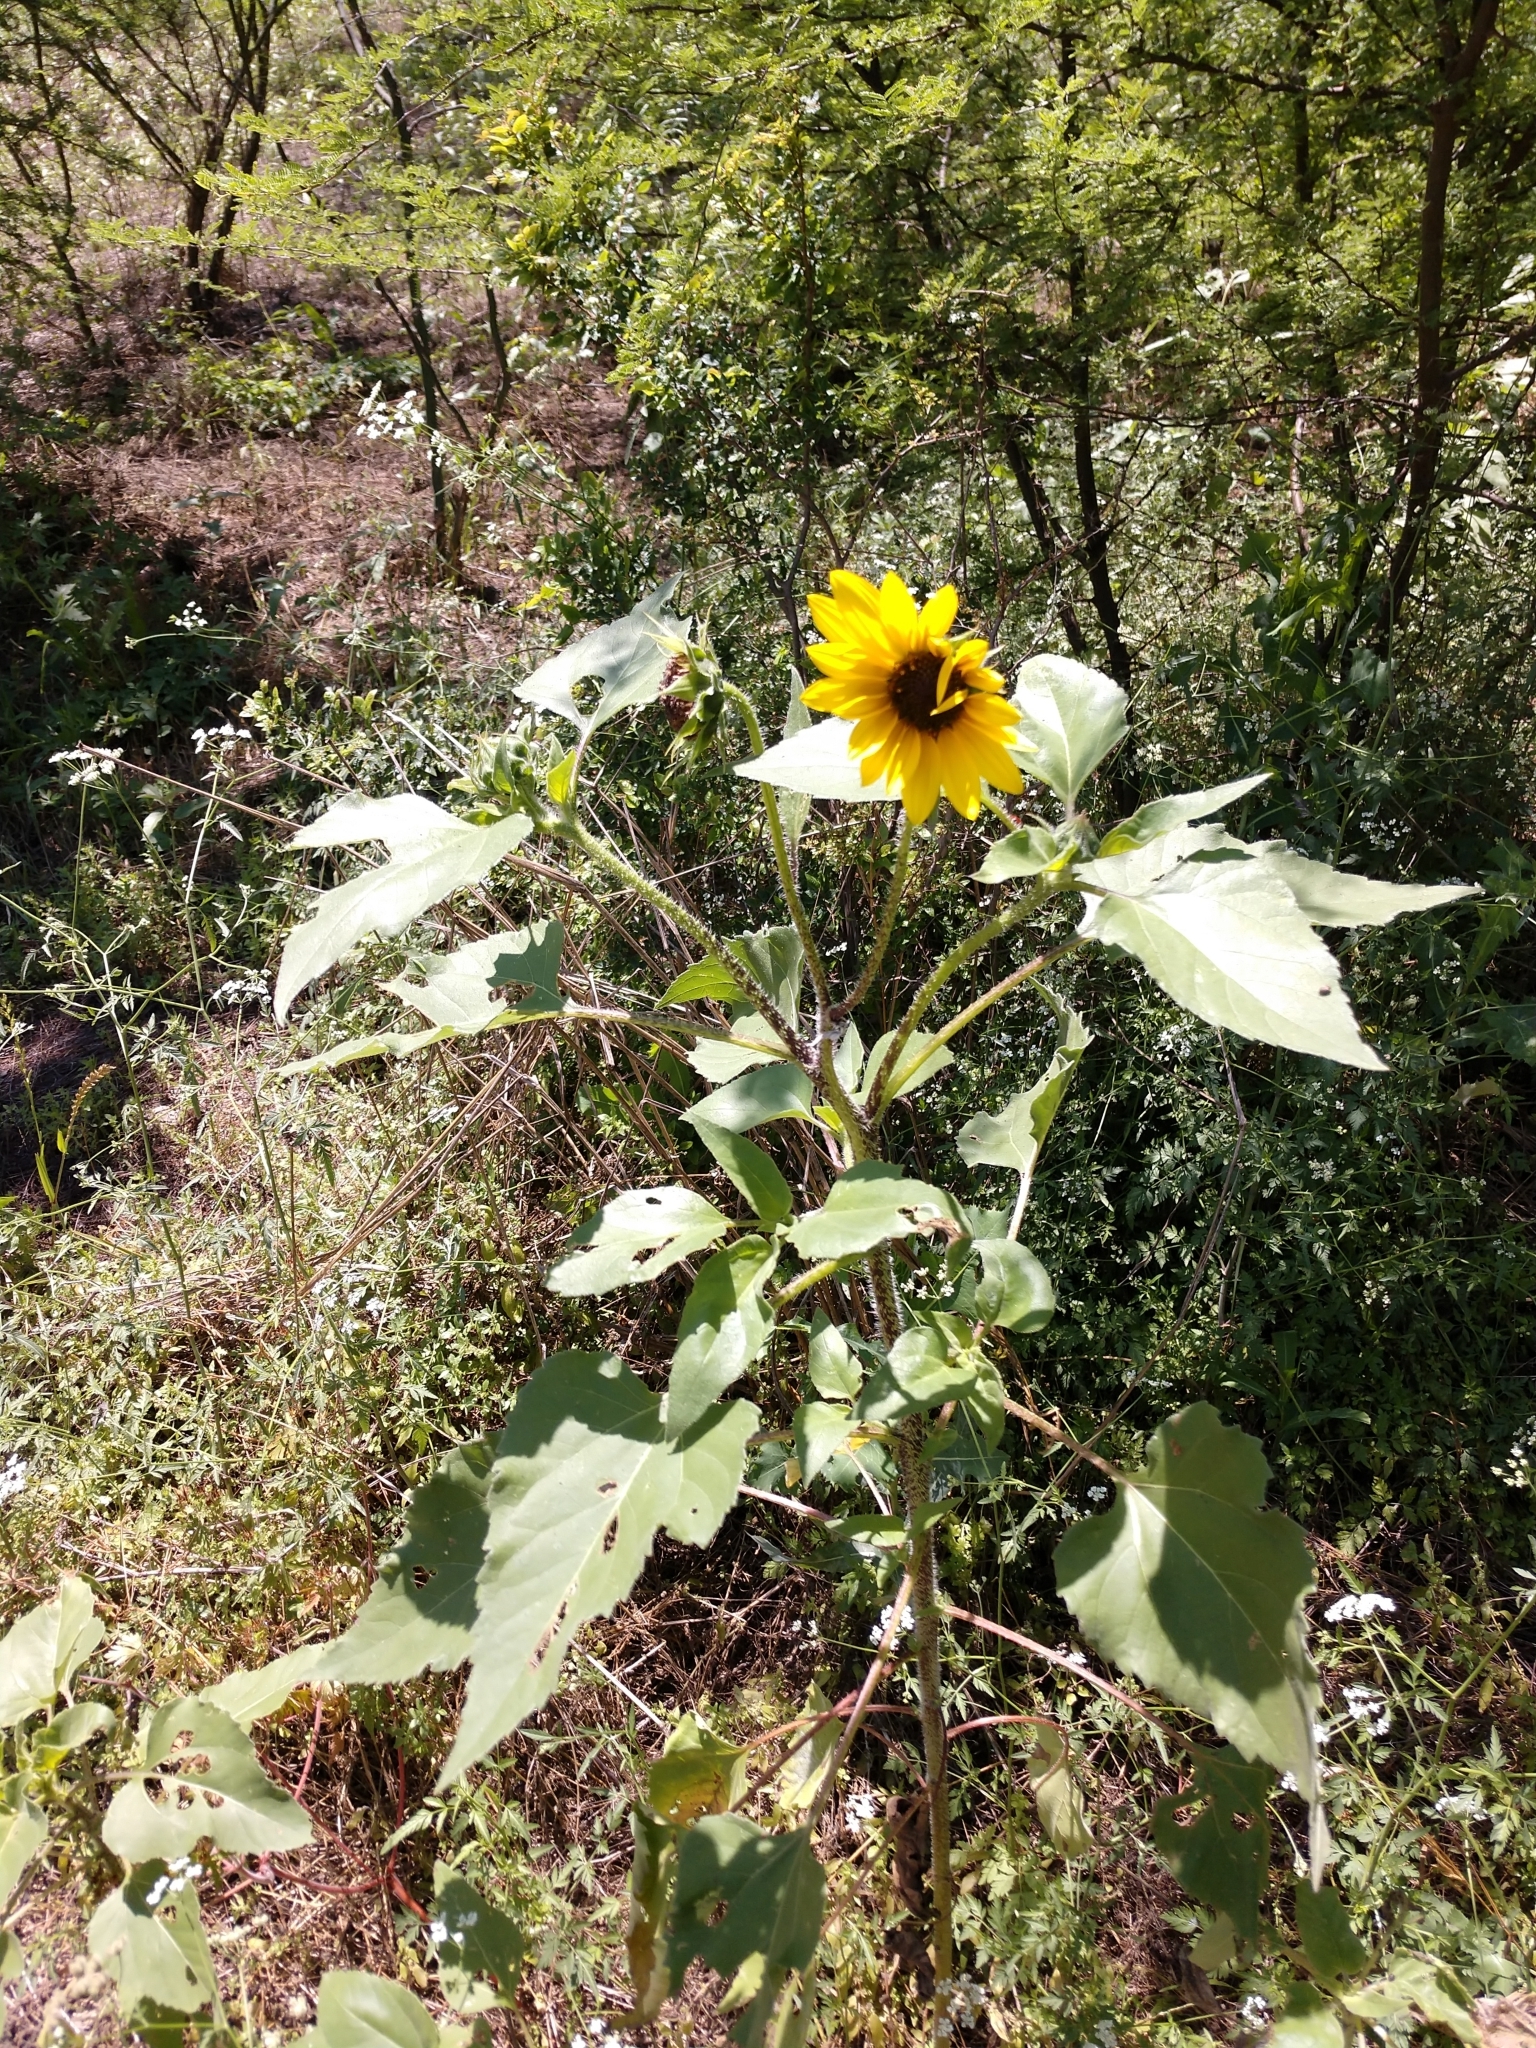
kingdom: Plantae
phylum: Tracheophyta
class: Magnoliopsida
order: Asterales
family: Asteraceae
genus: Helianthus
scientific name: Helianthus annuus
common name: Sunflower
